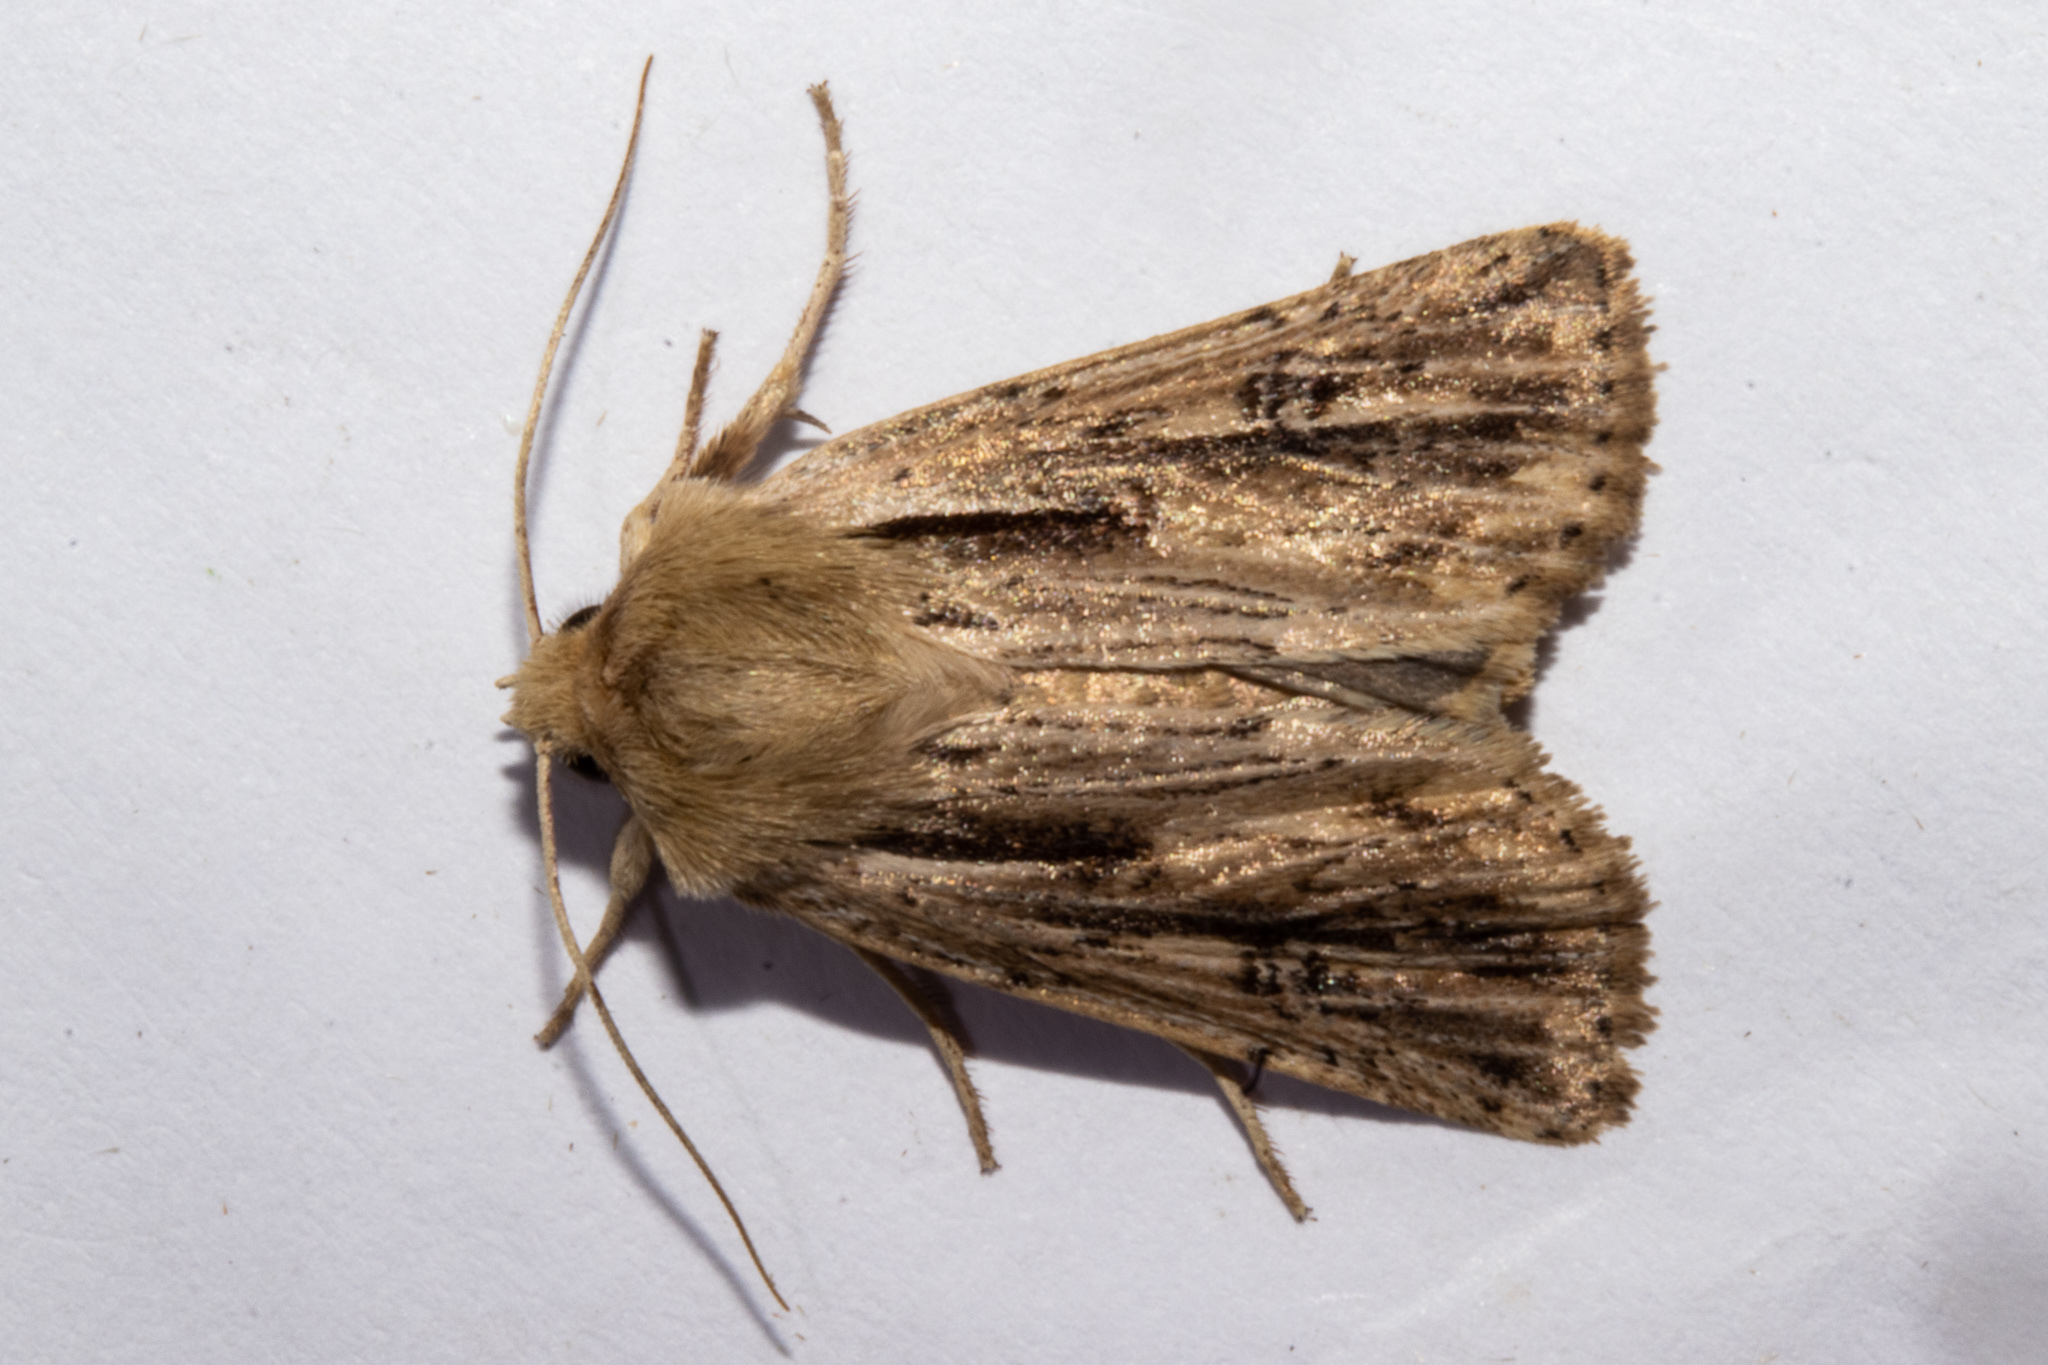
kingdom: Animalia
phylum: Arthropoda
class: Insecta
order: Lepidoptera
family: Noctuidae
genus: Ichneutica
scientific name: Ichneutica propria
